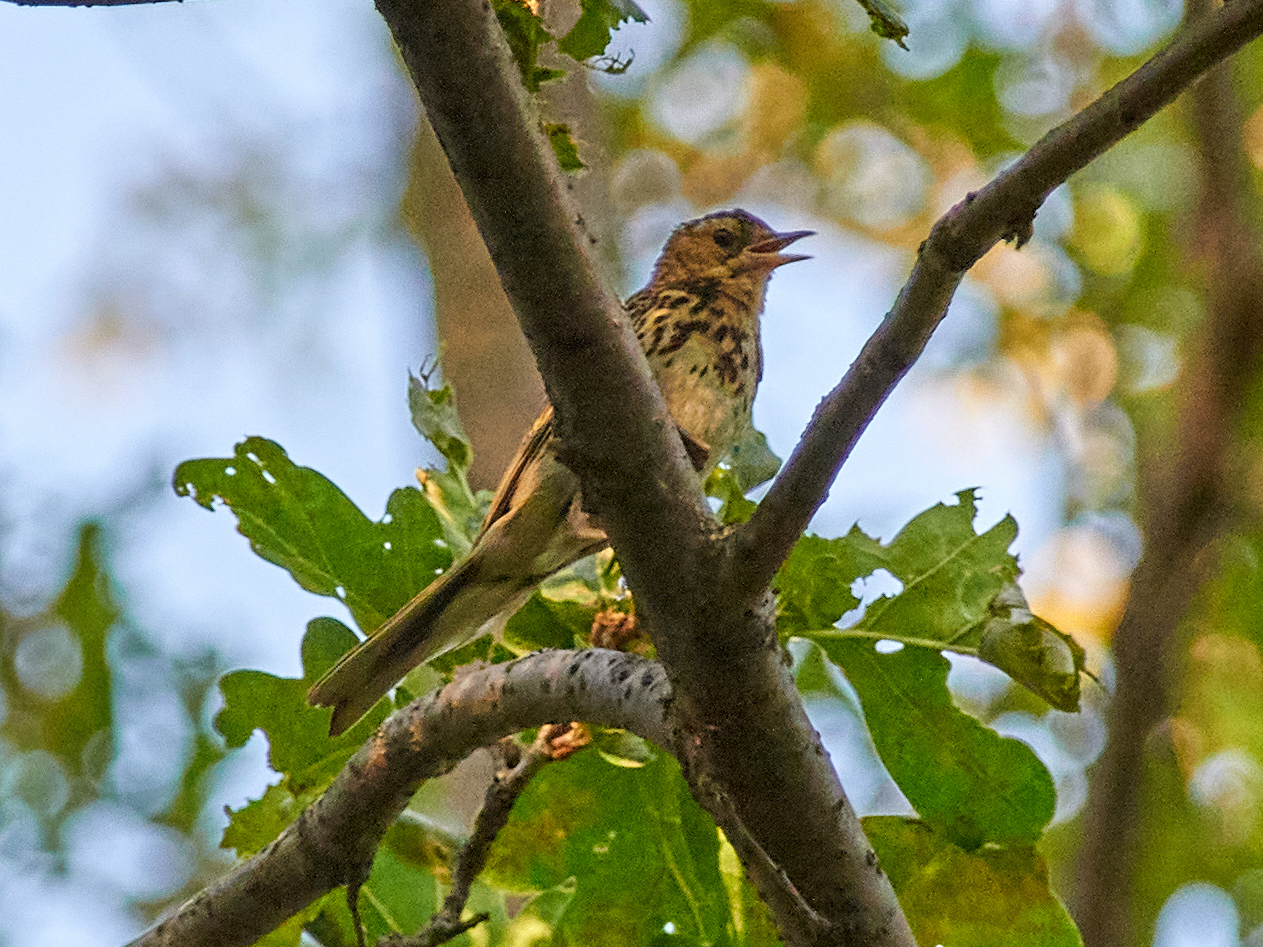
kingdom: Animalia
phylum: Chordata
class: Aves
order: Passeriformes
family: Motacillidae
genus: Anthus
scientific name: Anthus trivialis
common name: Tree pipit
